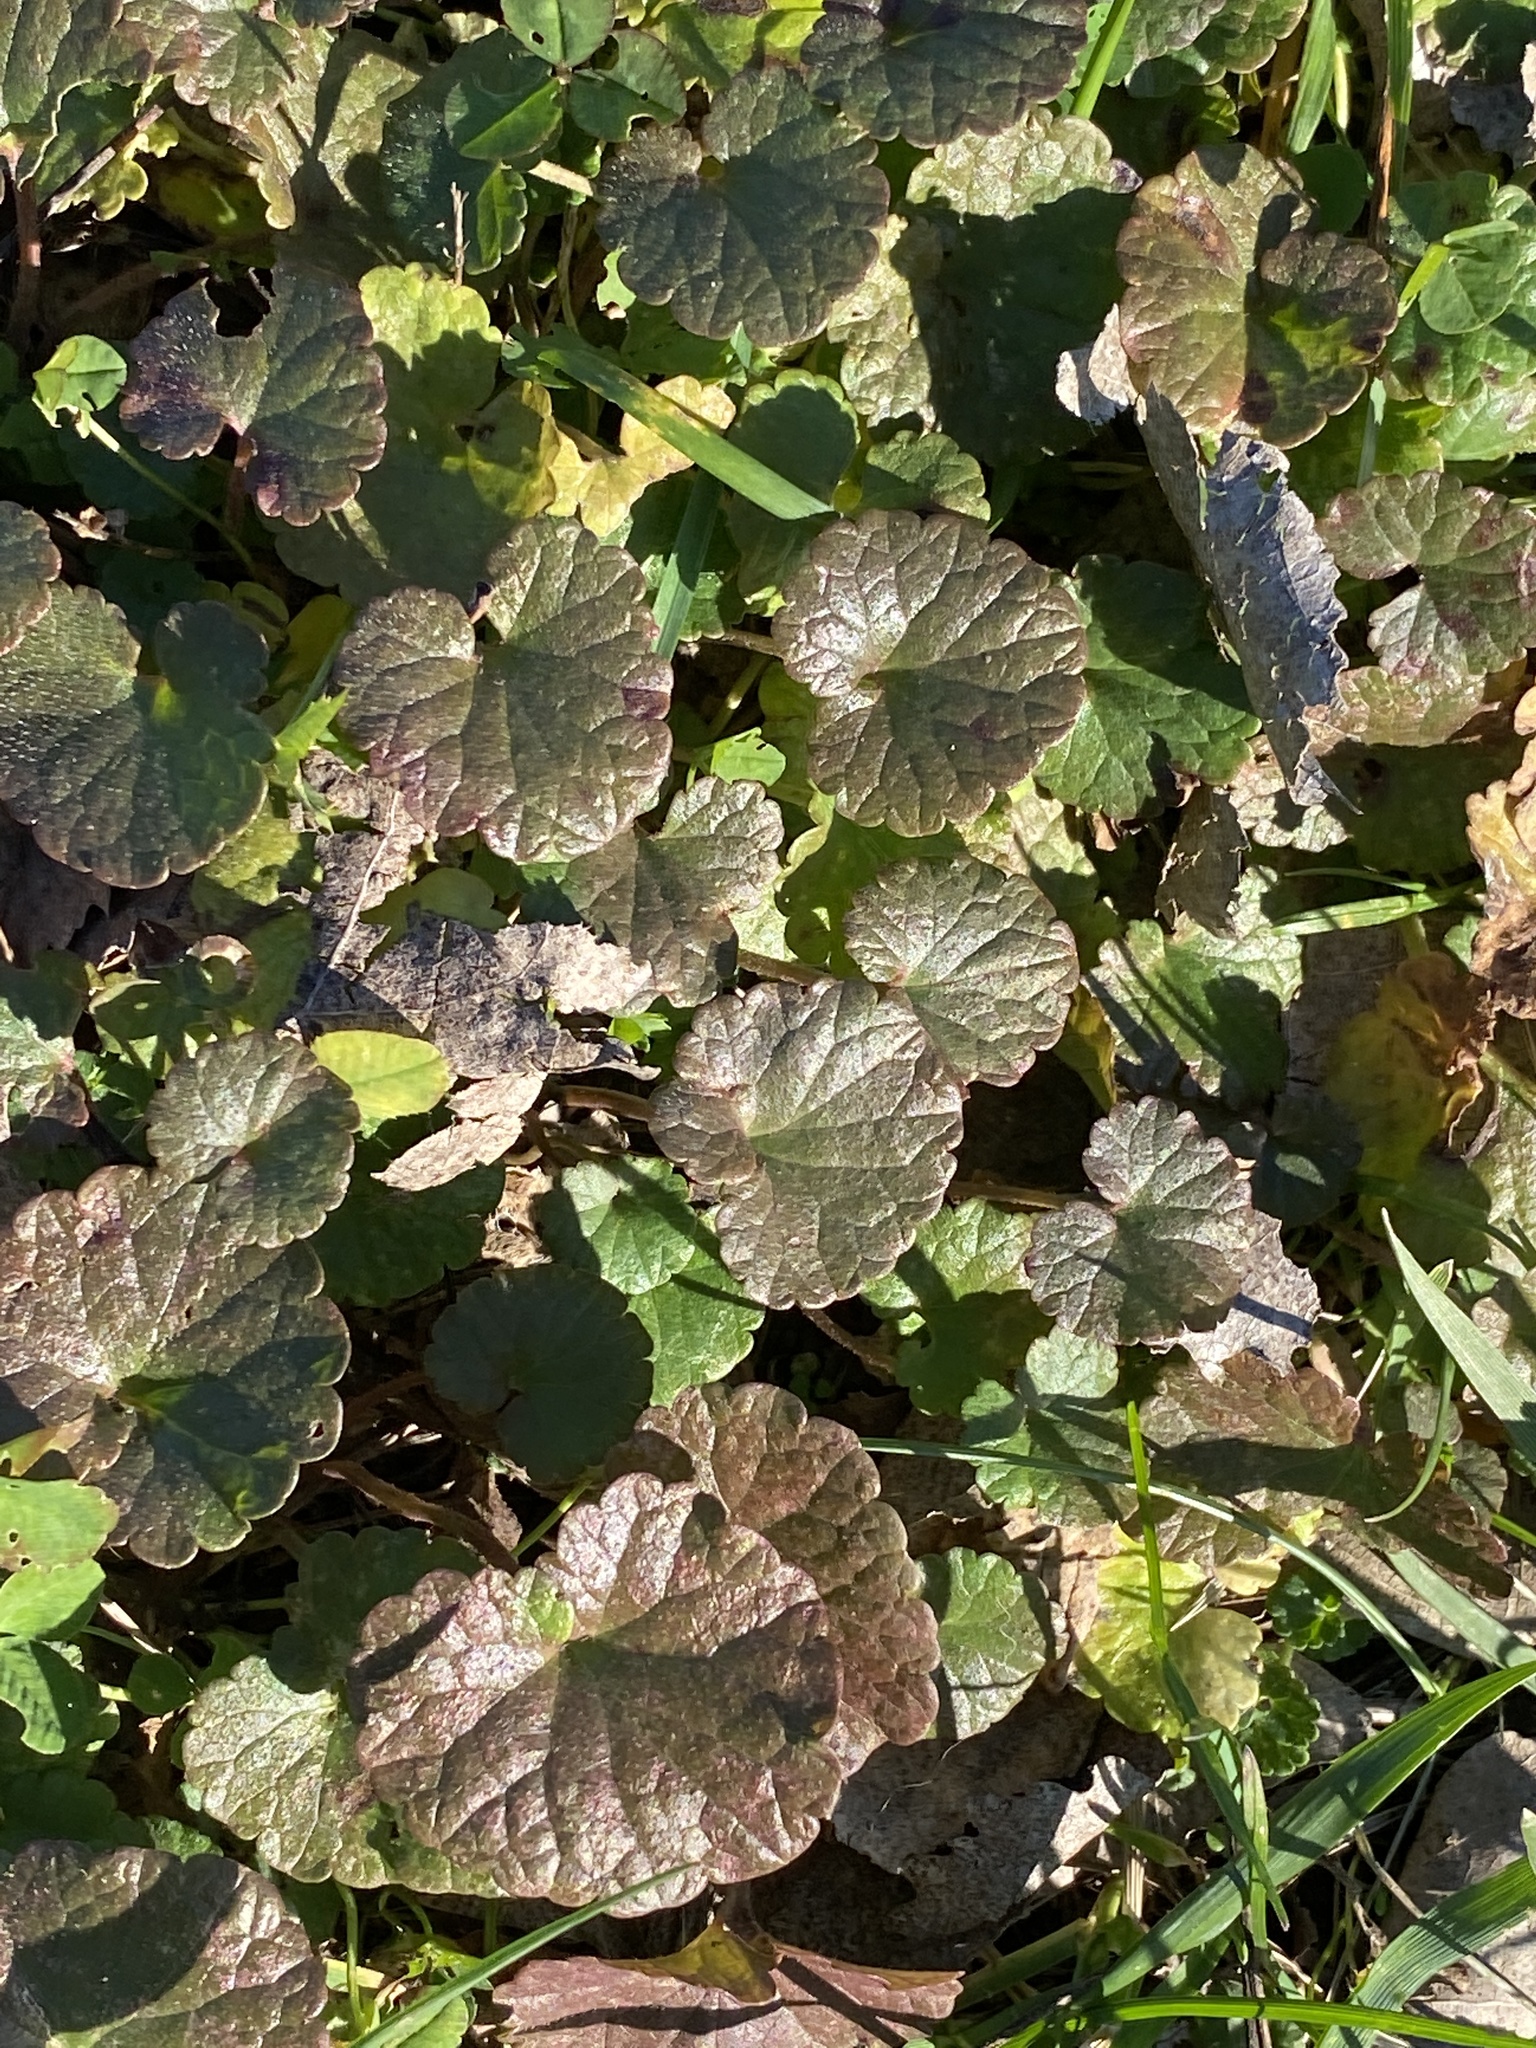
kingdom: Plantae
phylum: Tracheophyta
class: Magnoliopsida
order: Lamiales
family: Lamiaceae
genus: Glechoma
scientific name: Glechoma hederacea
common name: Ground ivy
